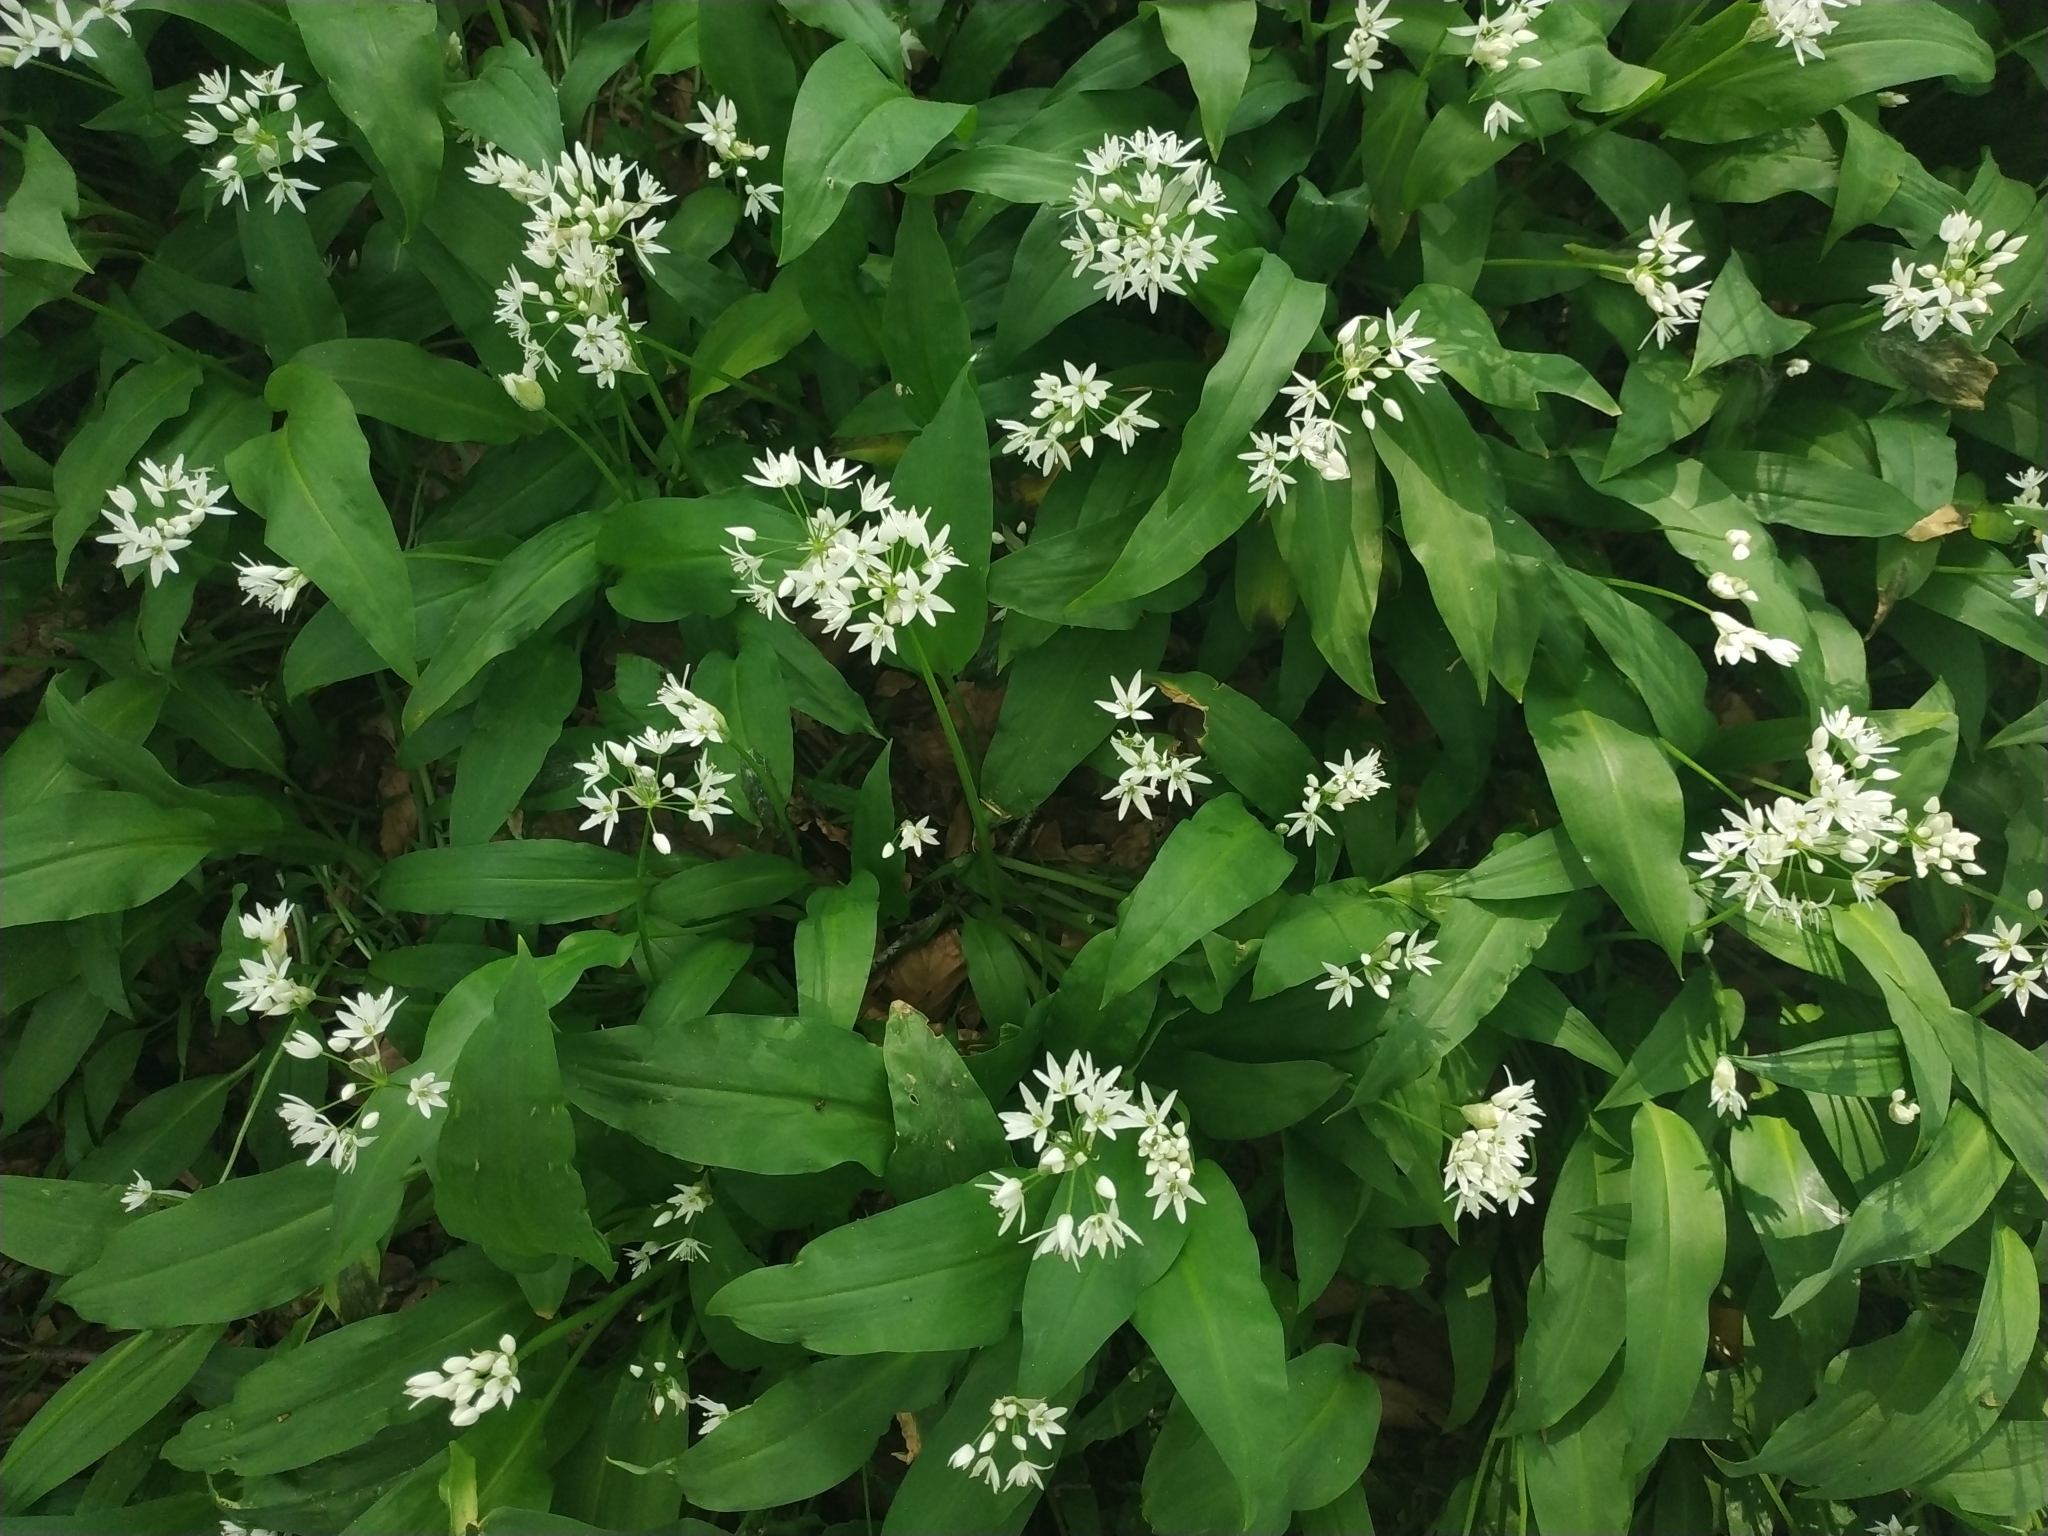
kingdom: Plantae
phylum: Tracheophyta
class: Liliopsida
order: Asparagales
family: Amaryllidaceae
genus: Allium
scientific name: Allium ursinum
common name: Ramsons
